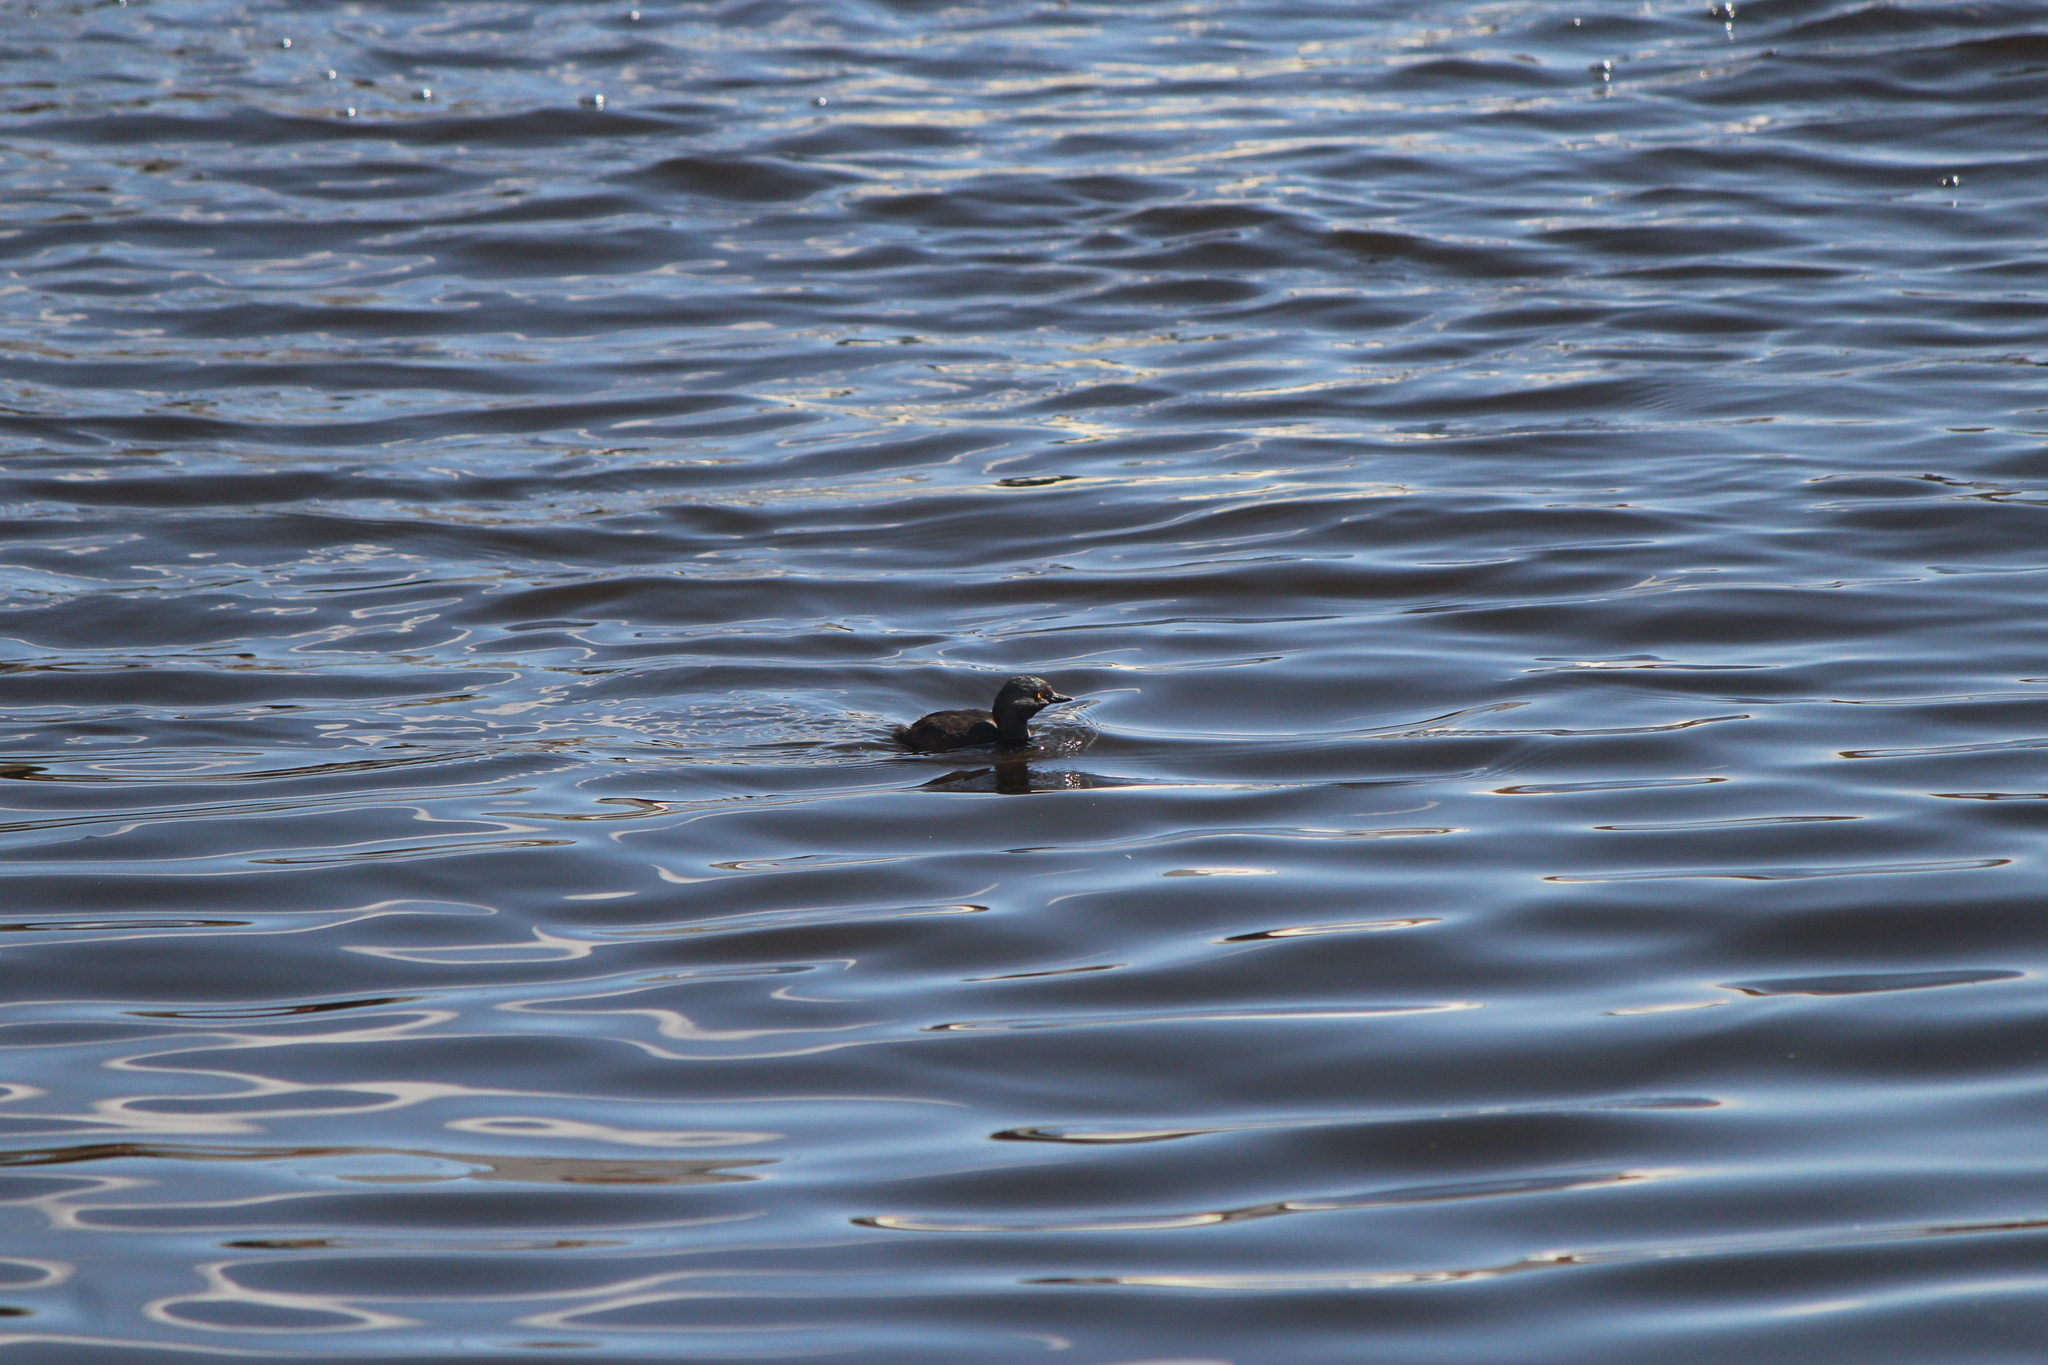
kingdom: Animalia
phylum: Chordata
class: Aves
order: Podicipediformes
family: Podicipedidae
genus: Tachybaptus
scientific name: Tachybaptus dominicus
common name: Least grebe
